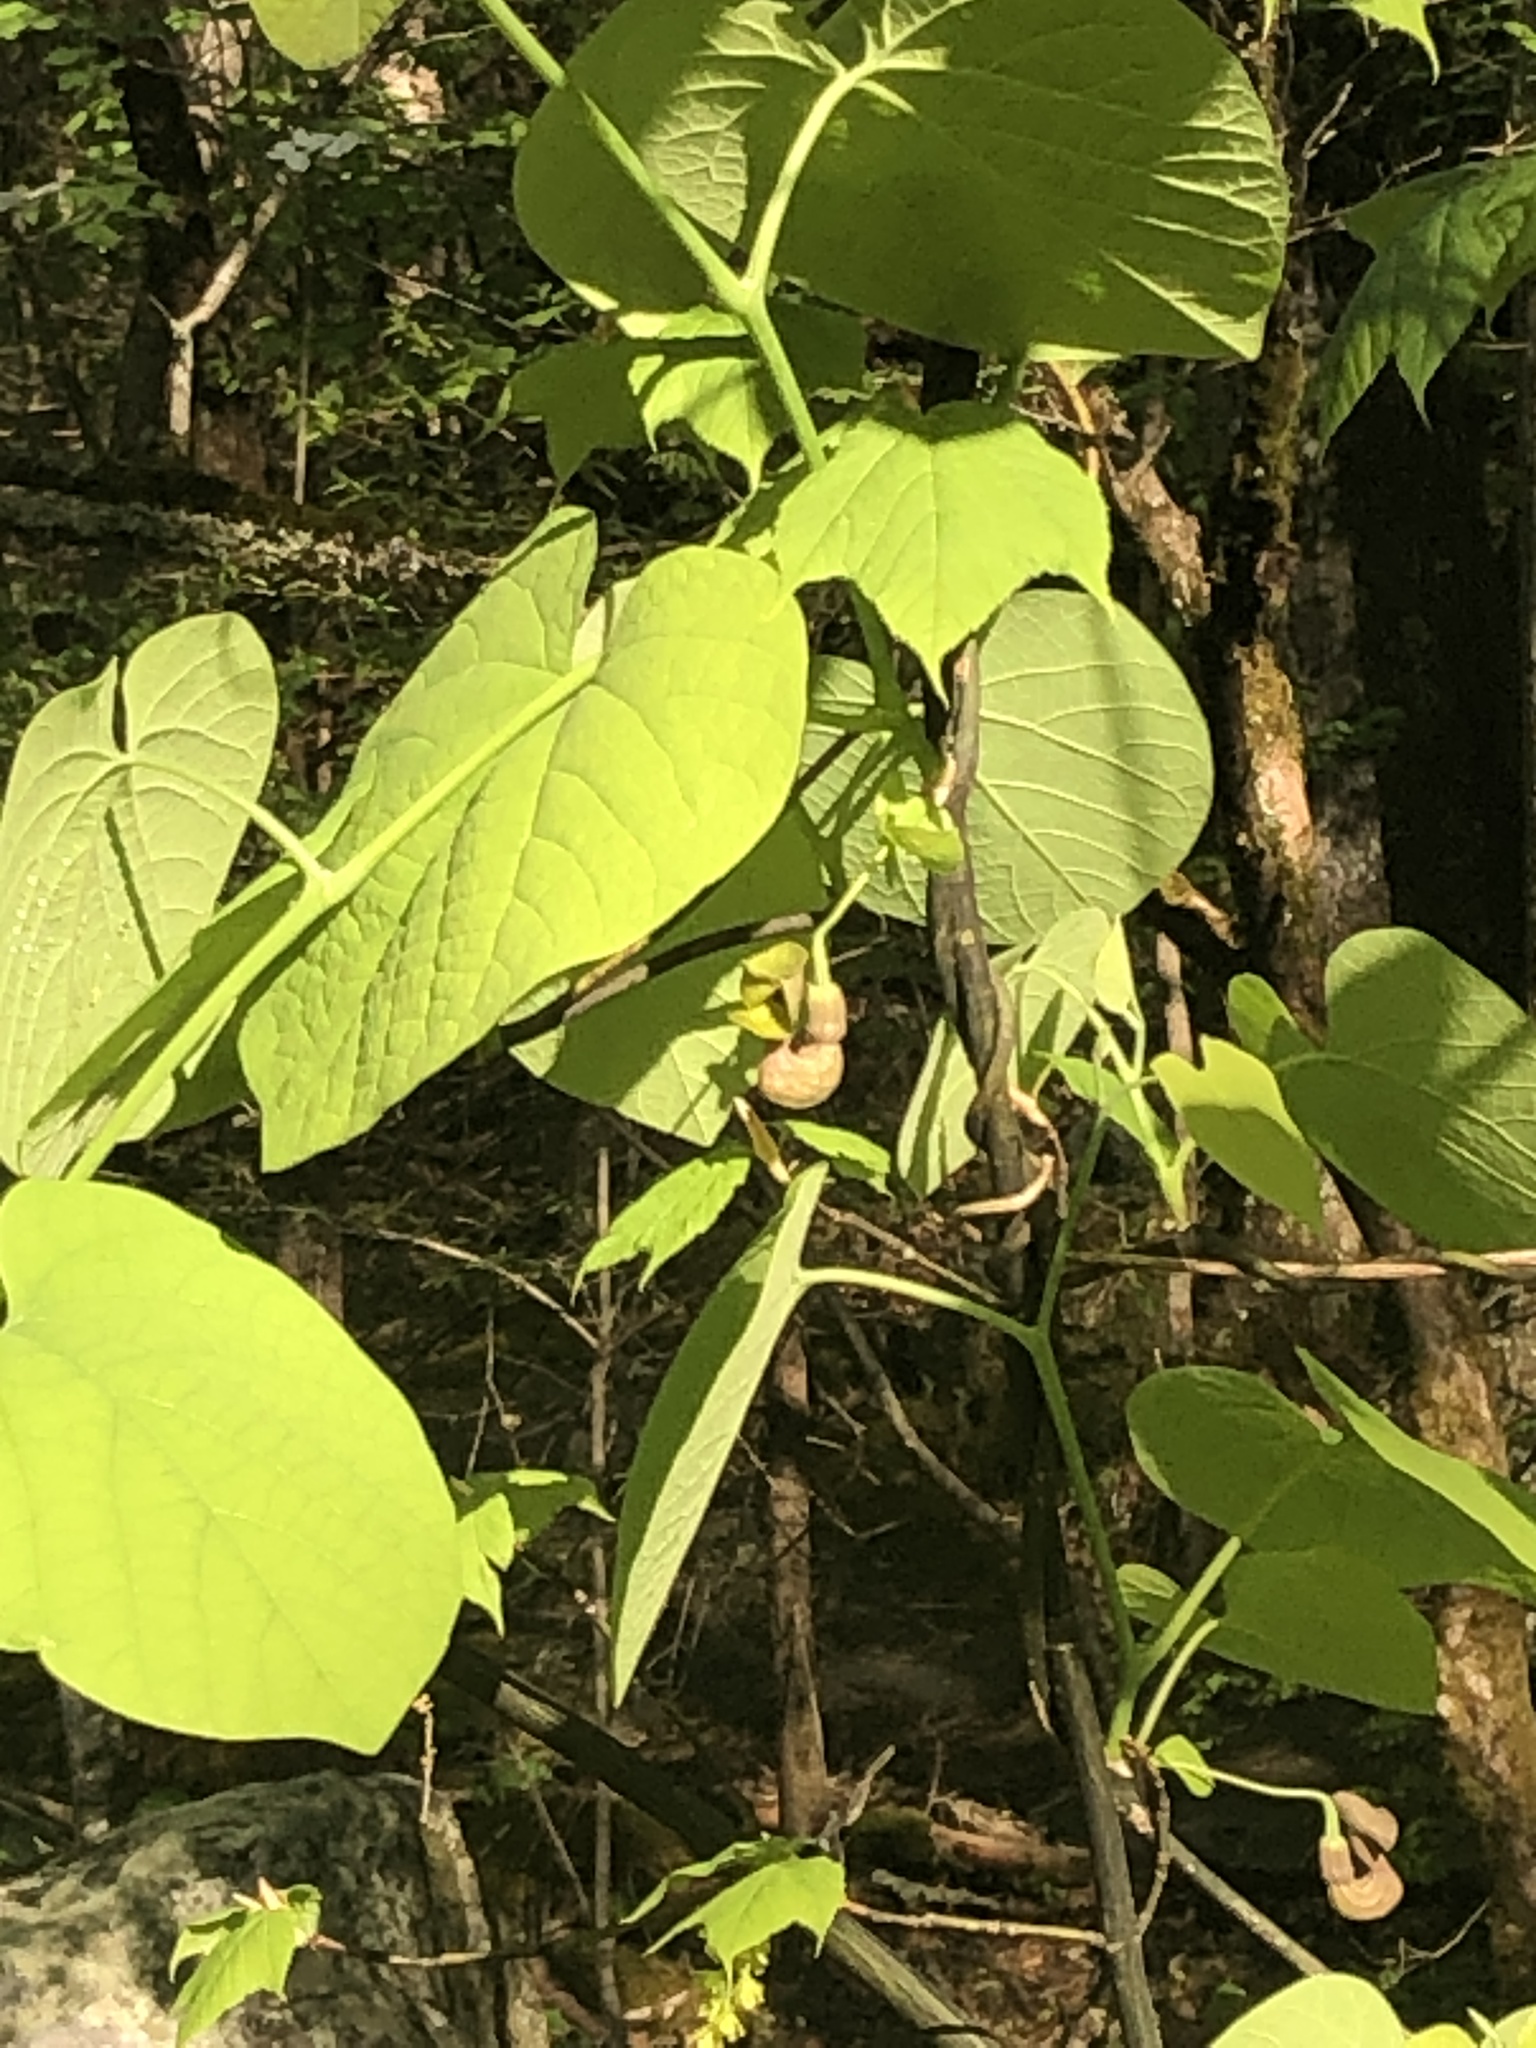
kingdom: Plantae
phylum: Tracheophyta
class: Magnoliopsida
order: Piperales
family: Aristolochiaceae
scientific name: Aristolochiaceae
